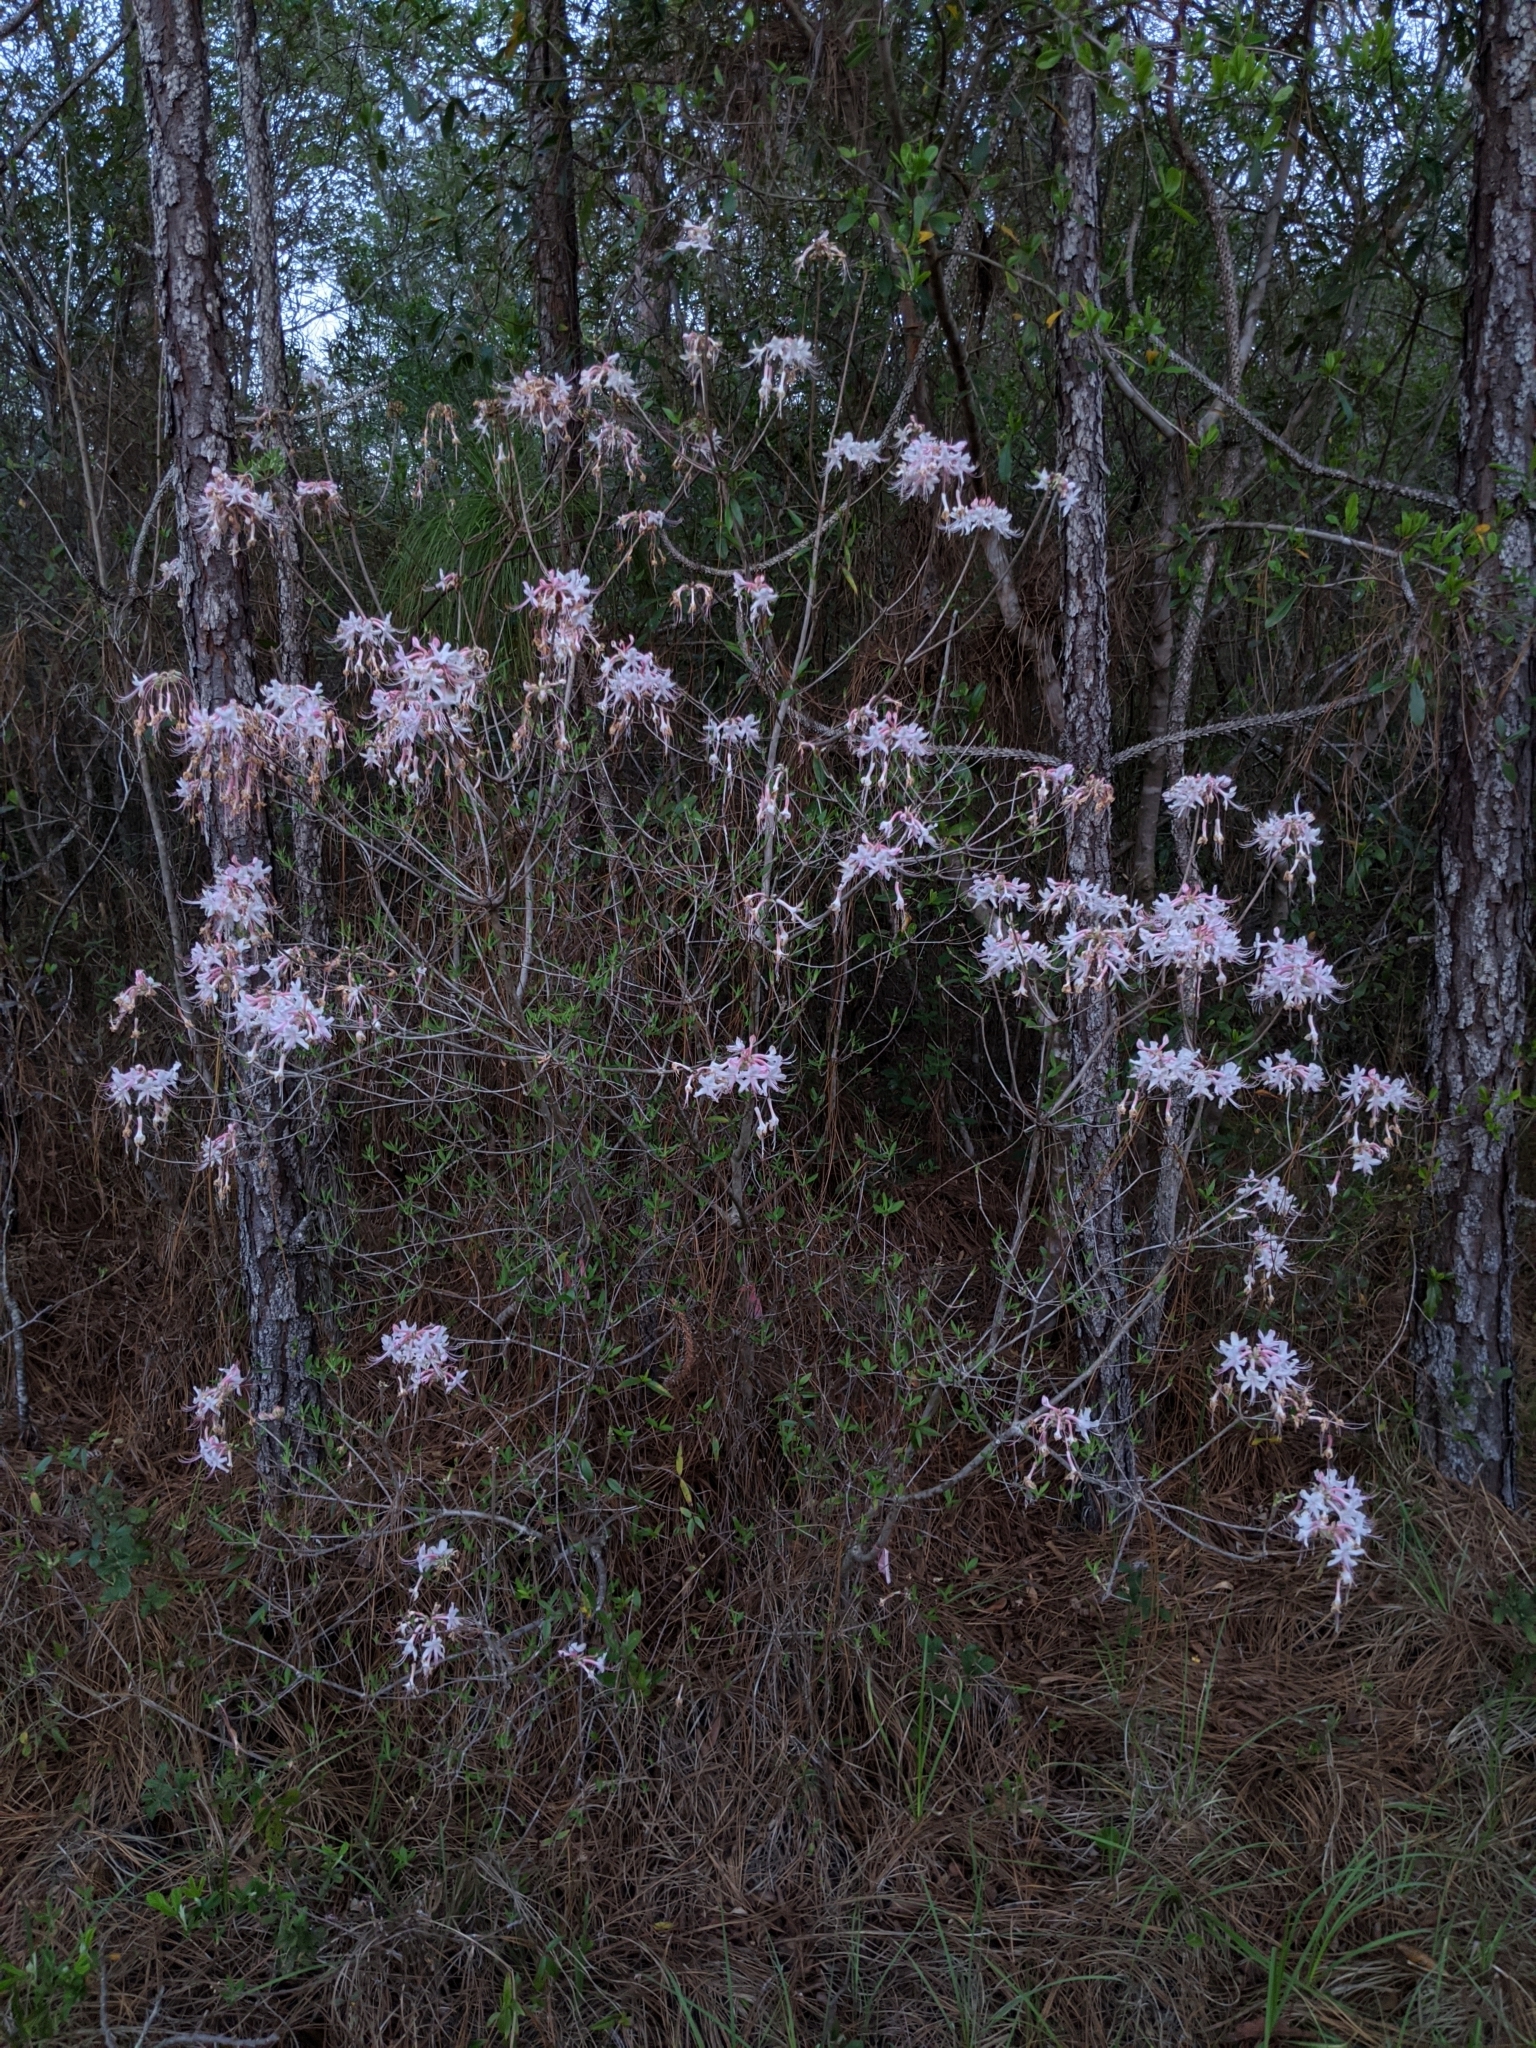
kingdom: Plantae
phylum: Tracheophyta
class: Magnoliopsida
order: Ericales
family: Ericaceae
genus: Rhododendron
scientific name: Rhododendron canescens
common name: Mountain azalea
